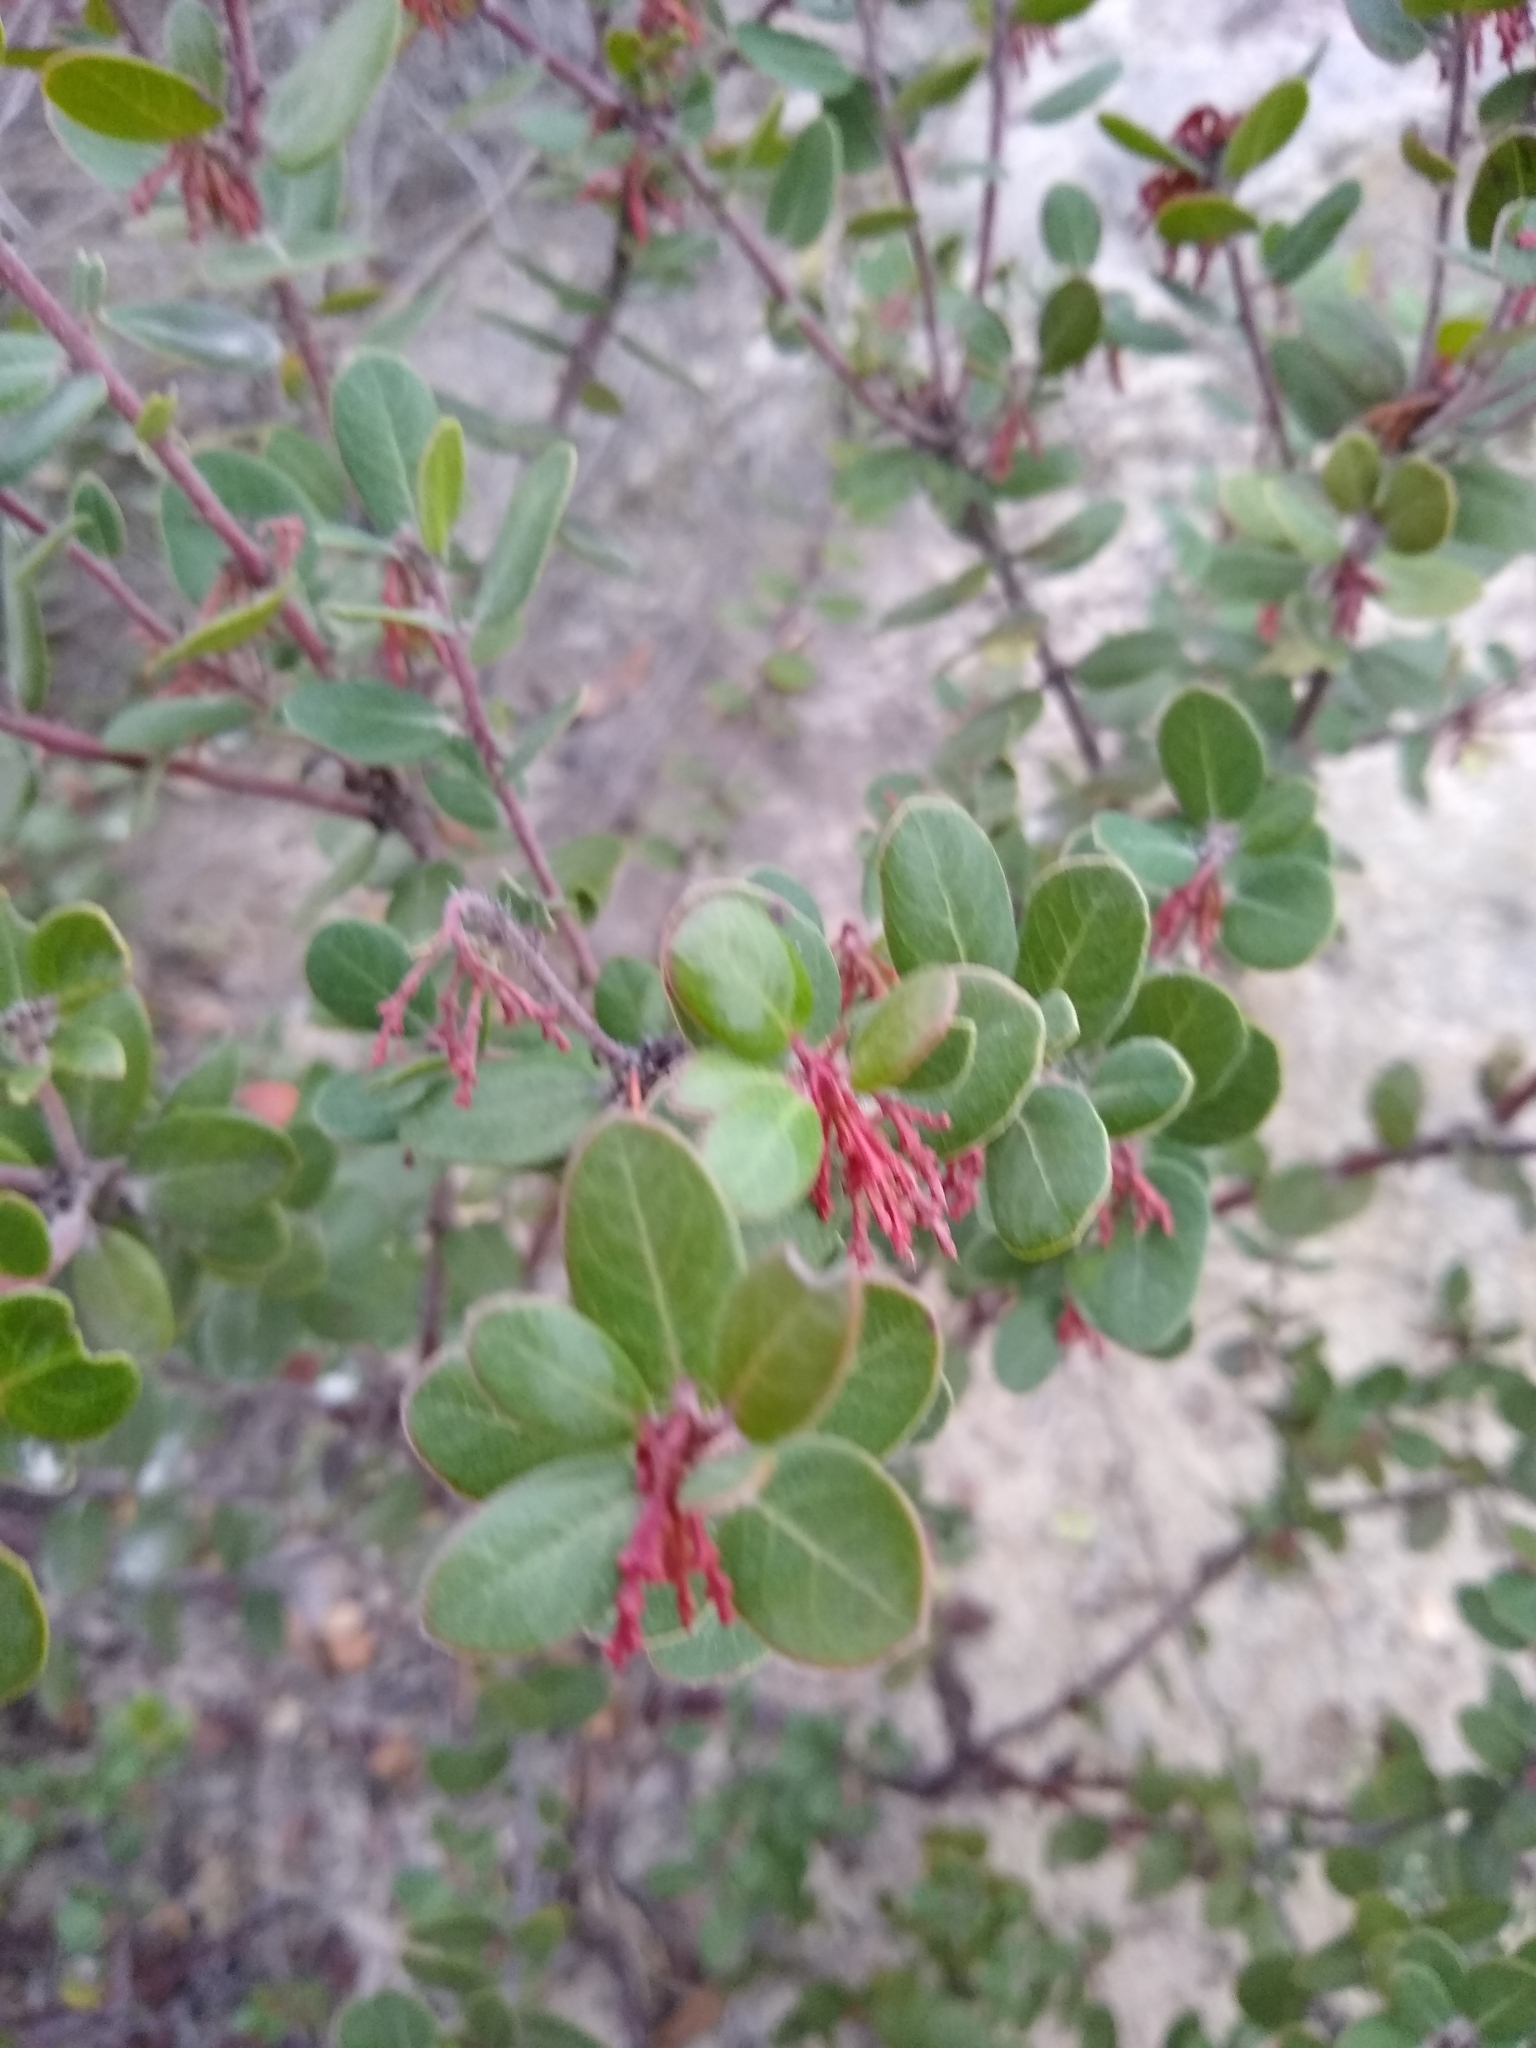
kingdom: Plantae
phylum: Tracheophyta
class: Magnoliopsida
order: Sapindales
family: Anacardiaceae
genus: Rhus
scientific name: Rhus integrifolia
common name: Lemonade sumac
